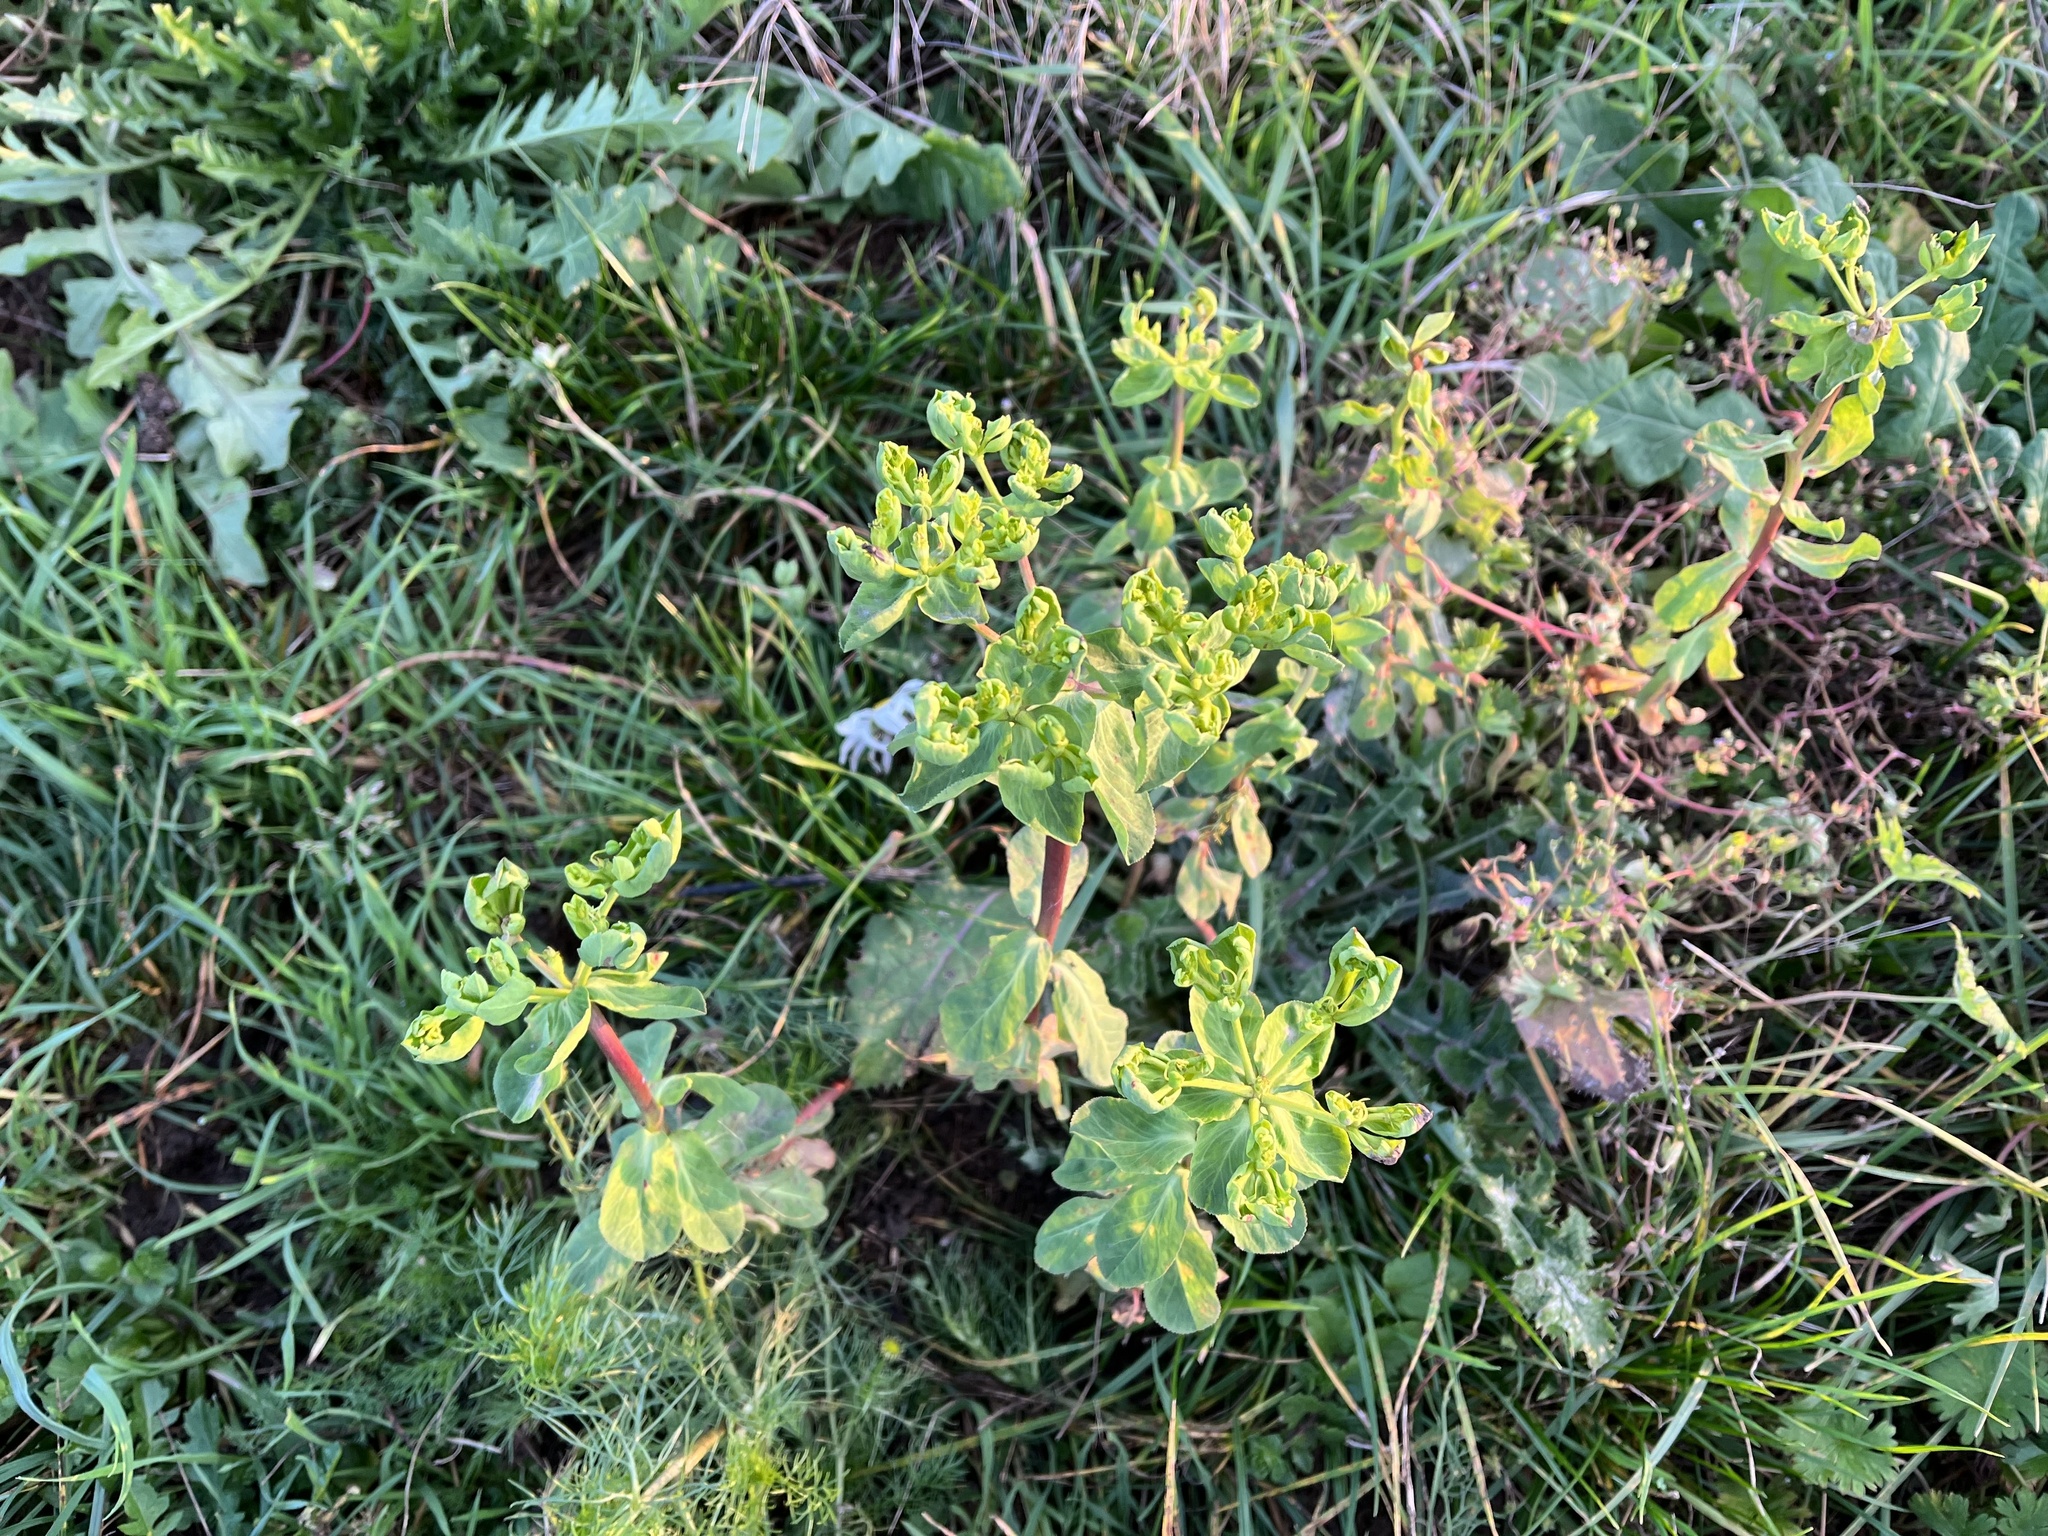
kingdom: Plantae
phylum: Tracheophyta
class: Magnoliopsida
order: Malpighiales
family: Euphorbiaceae
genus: Euphorbia
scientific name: Euphorbia helioscopia
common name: Sun spurge
